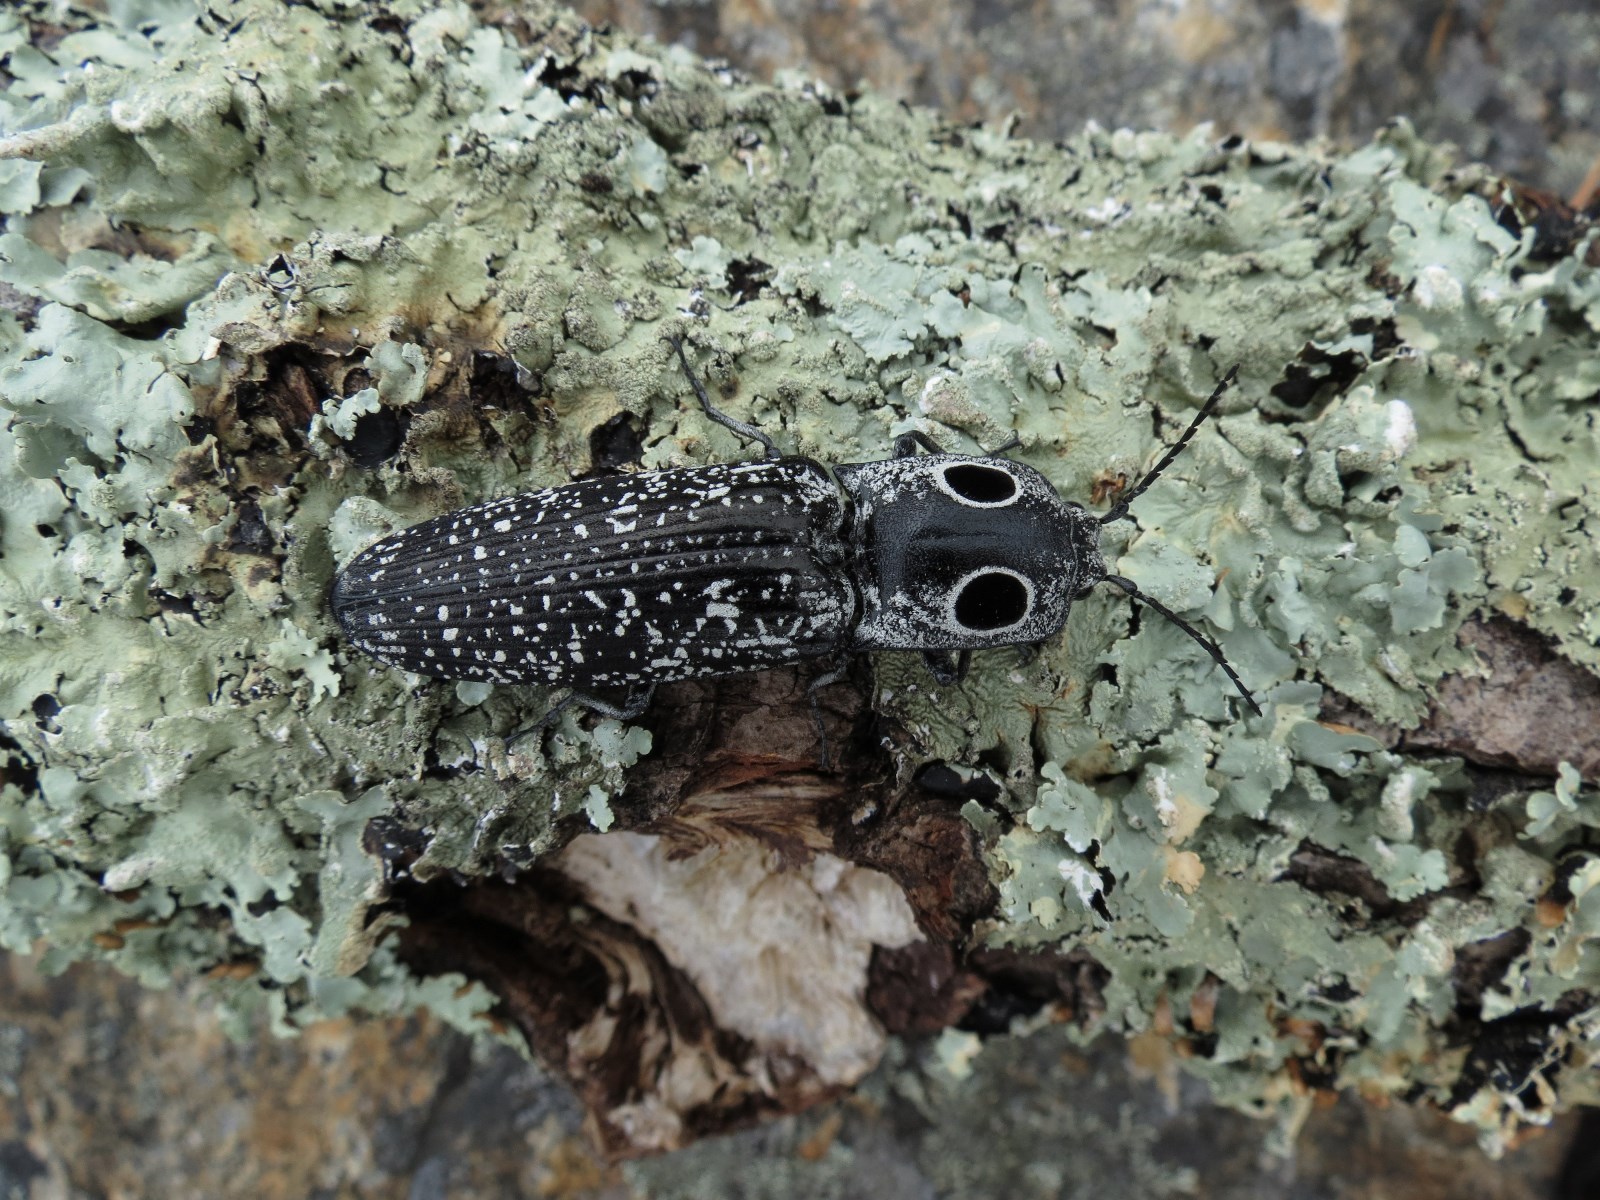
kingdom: Animalia
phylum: Arthropoda
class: Insecta
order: Coleoptera
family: Elateridae
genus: Alaus
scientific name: Alaus oculatus
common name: Eastern eyed click beetle
